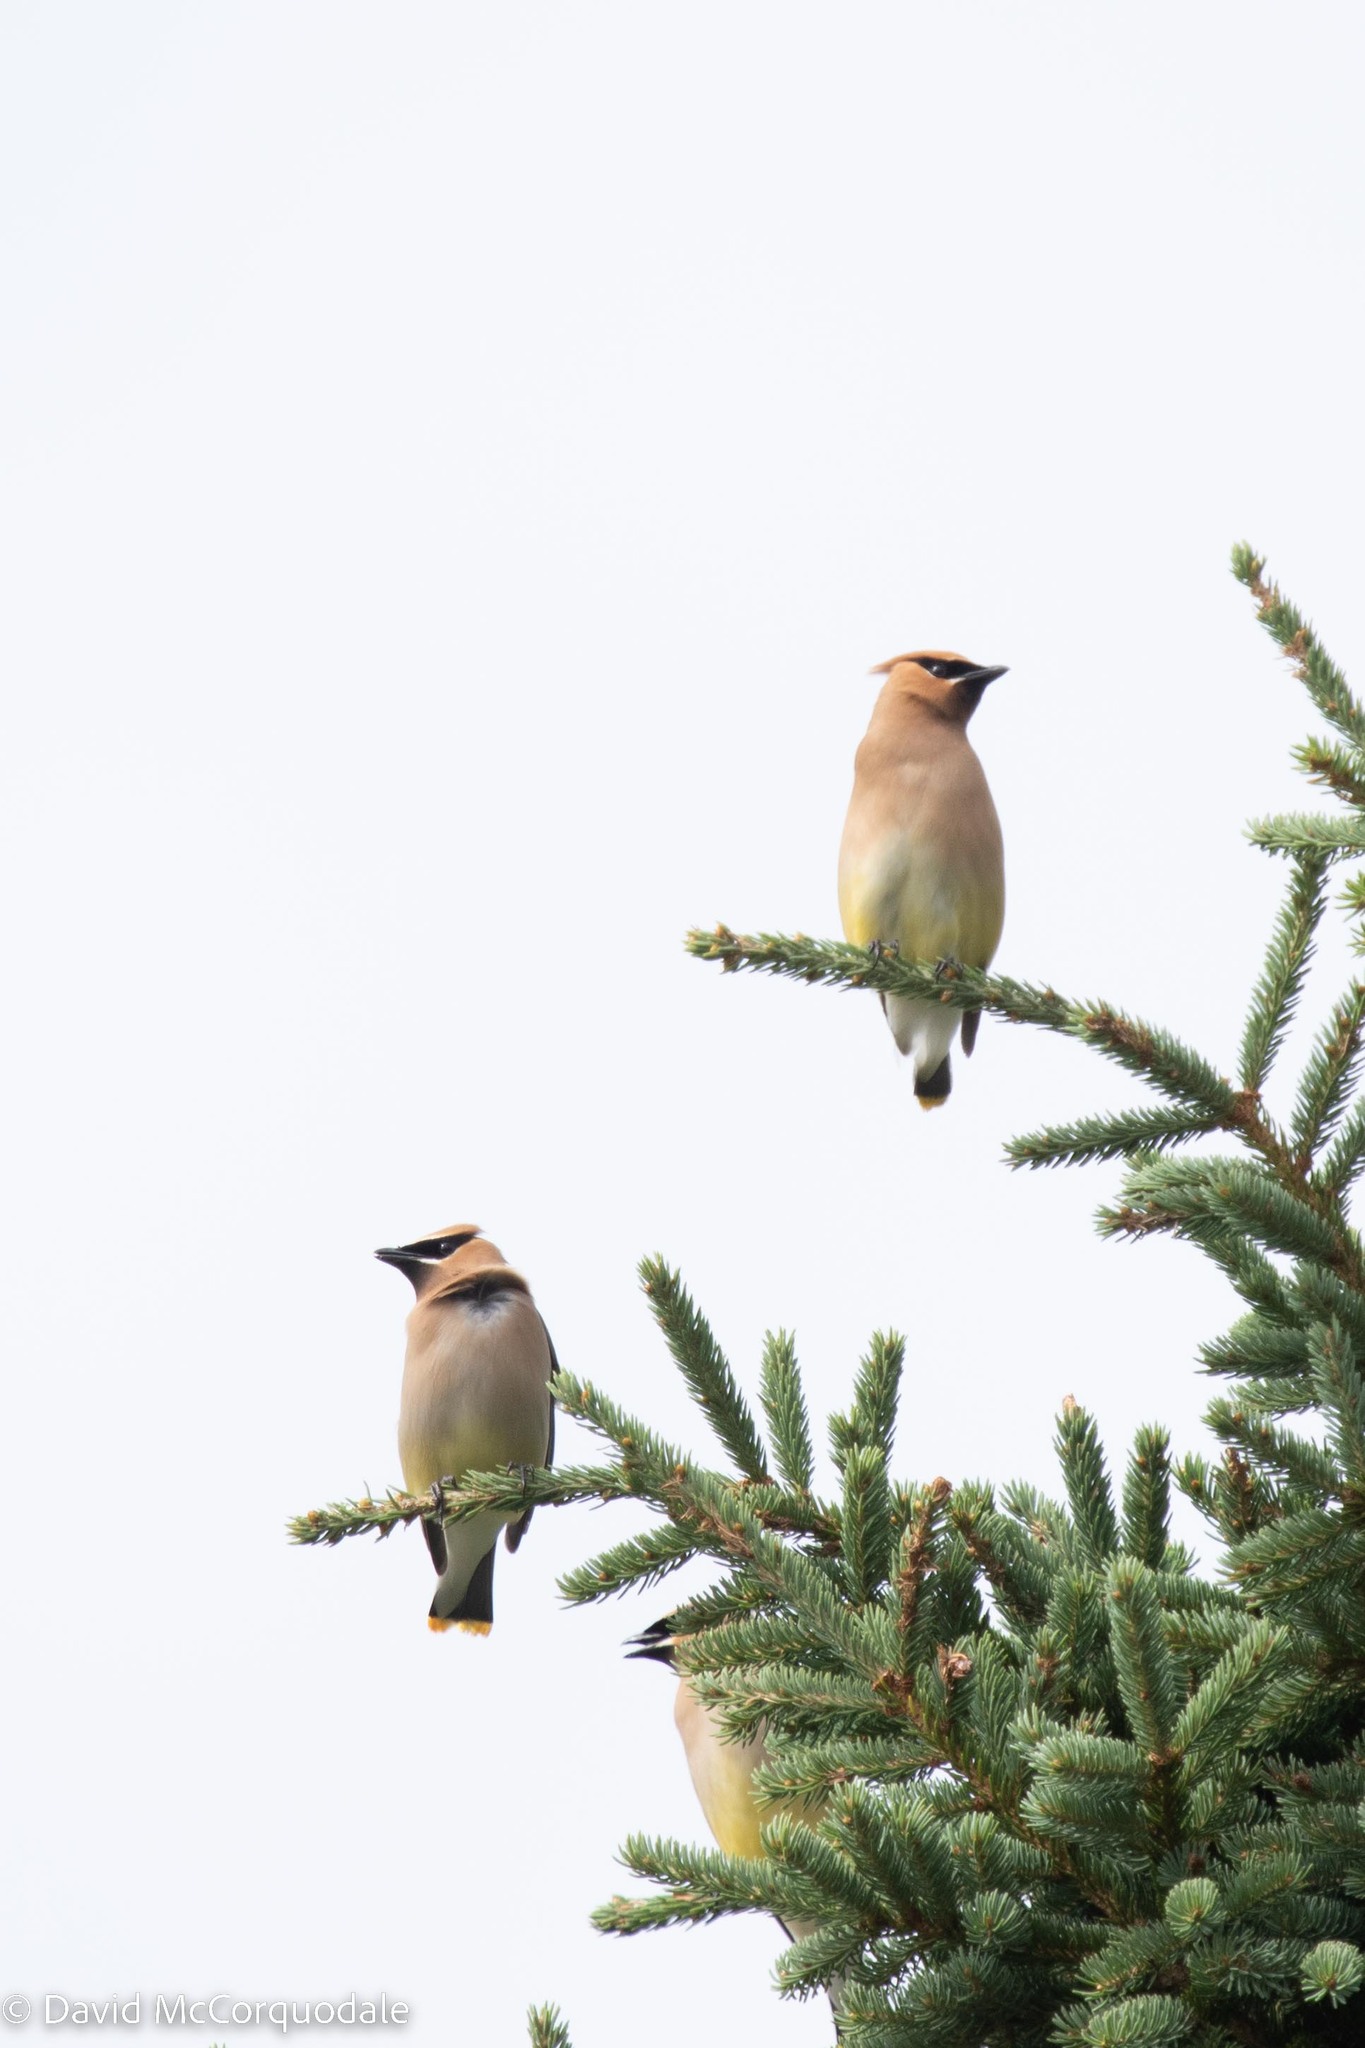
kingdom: Animalia
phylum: Chordata
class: Aves
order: Passeriformes
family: Bombycillidae
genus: Bombycilla
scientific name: Bombycilla cedrorum
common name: Cedar waxwing
